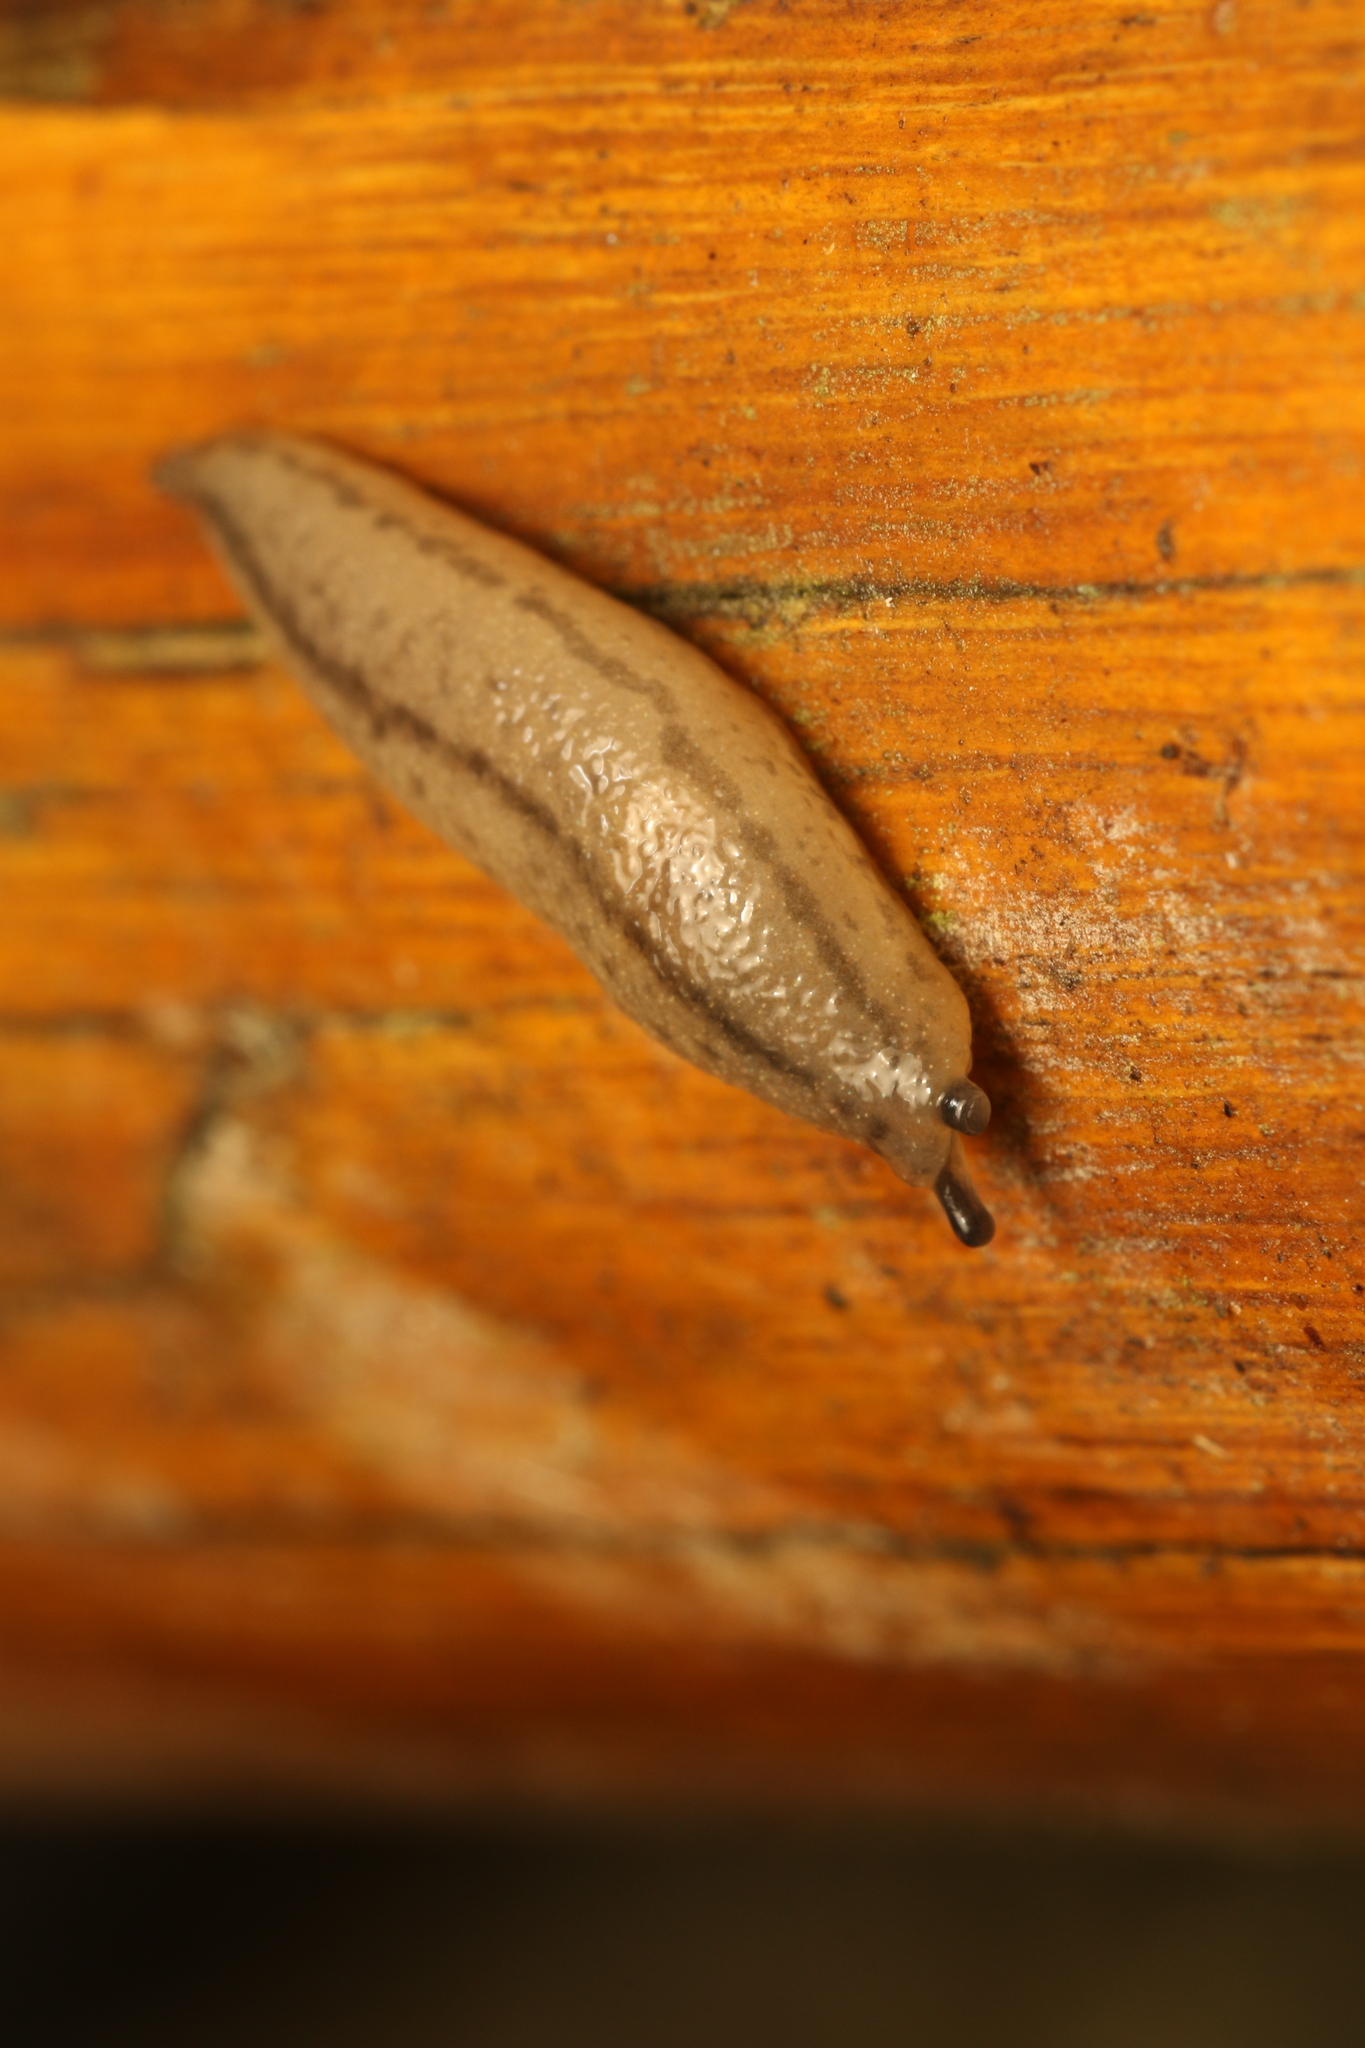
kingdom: Animalia
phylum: Mollusca
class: Gastropoda
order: Stylommatophora
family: Philomycidae
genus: Meghimatium
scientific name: Meghimatium pictum
